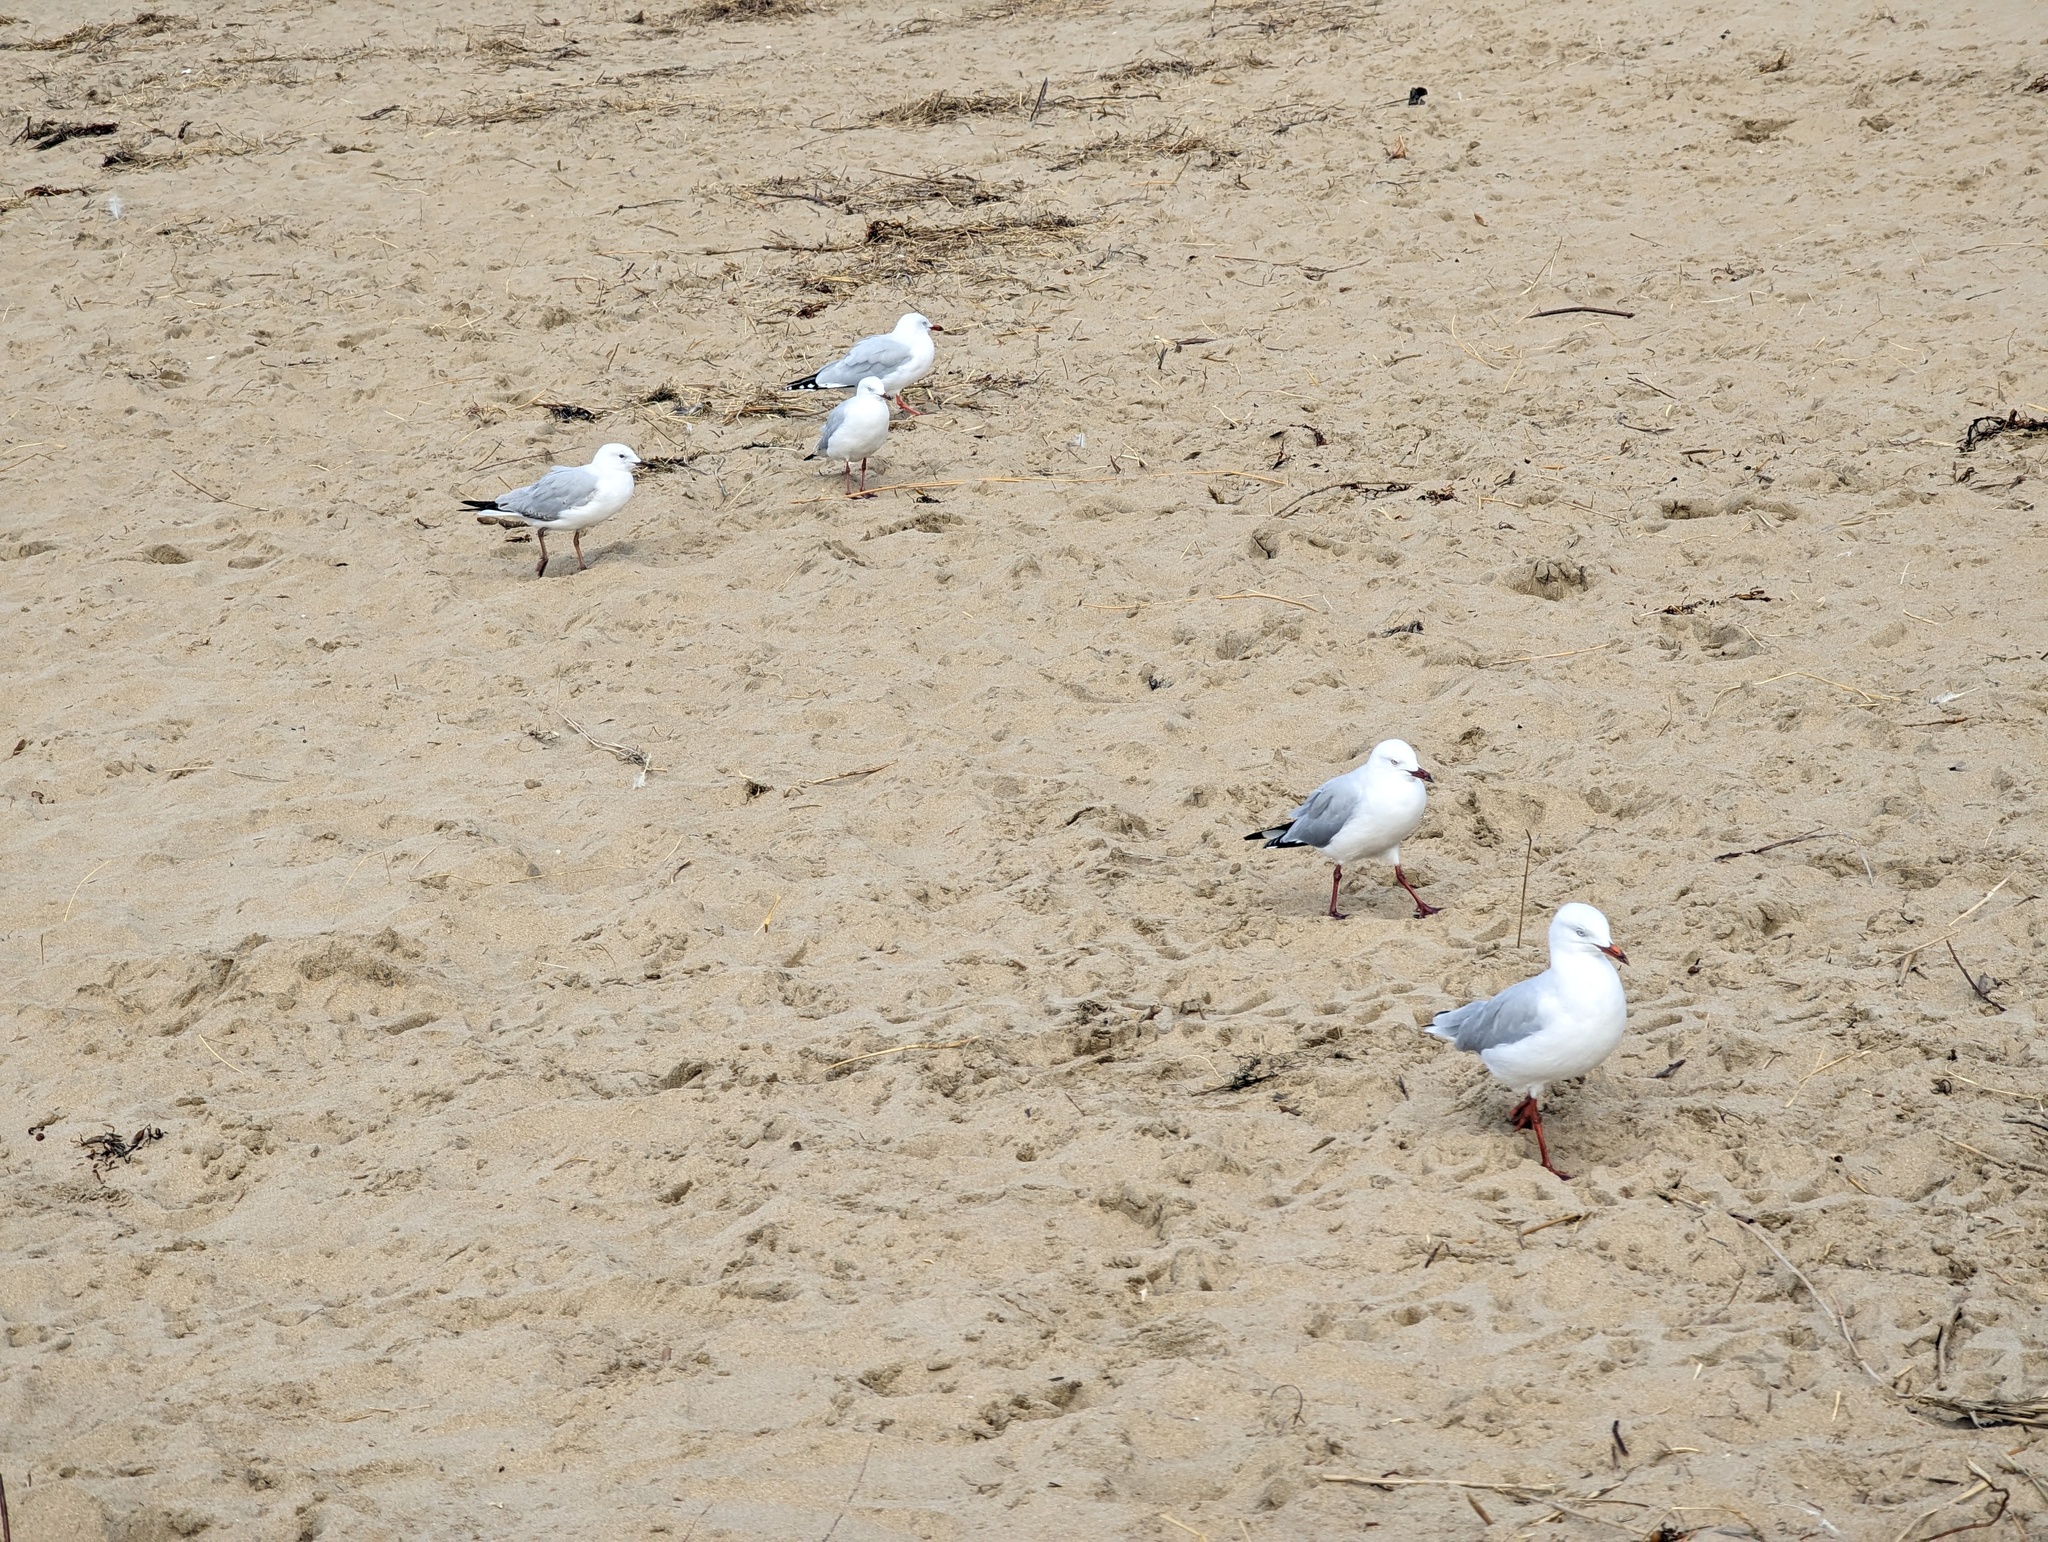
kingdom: Animalia
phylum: Chordata
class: Aves
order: Charadriiformes
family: Laridae
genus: Chroicocephalus
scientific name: Chroicocephalus novaehollandiae
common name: Silver gull
